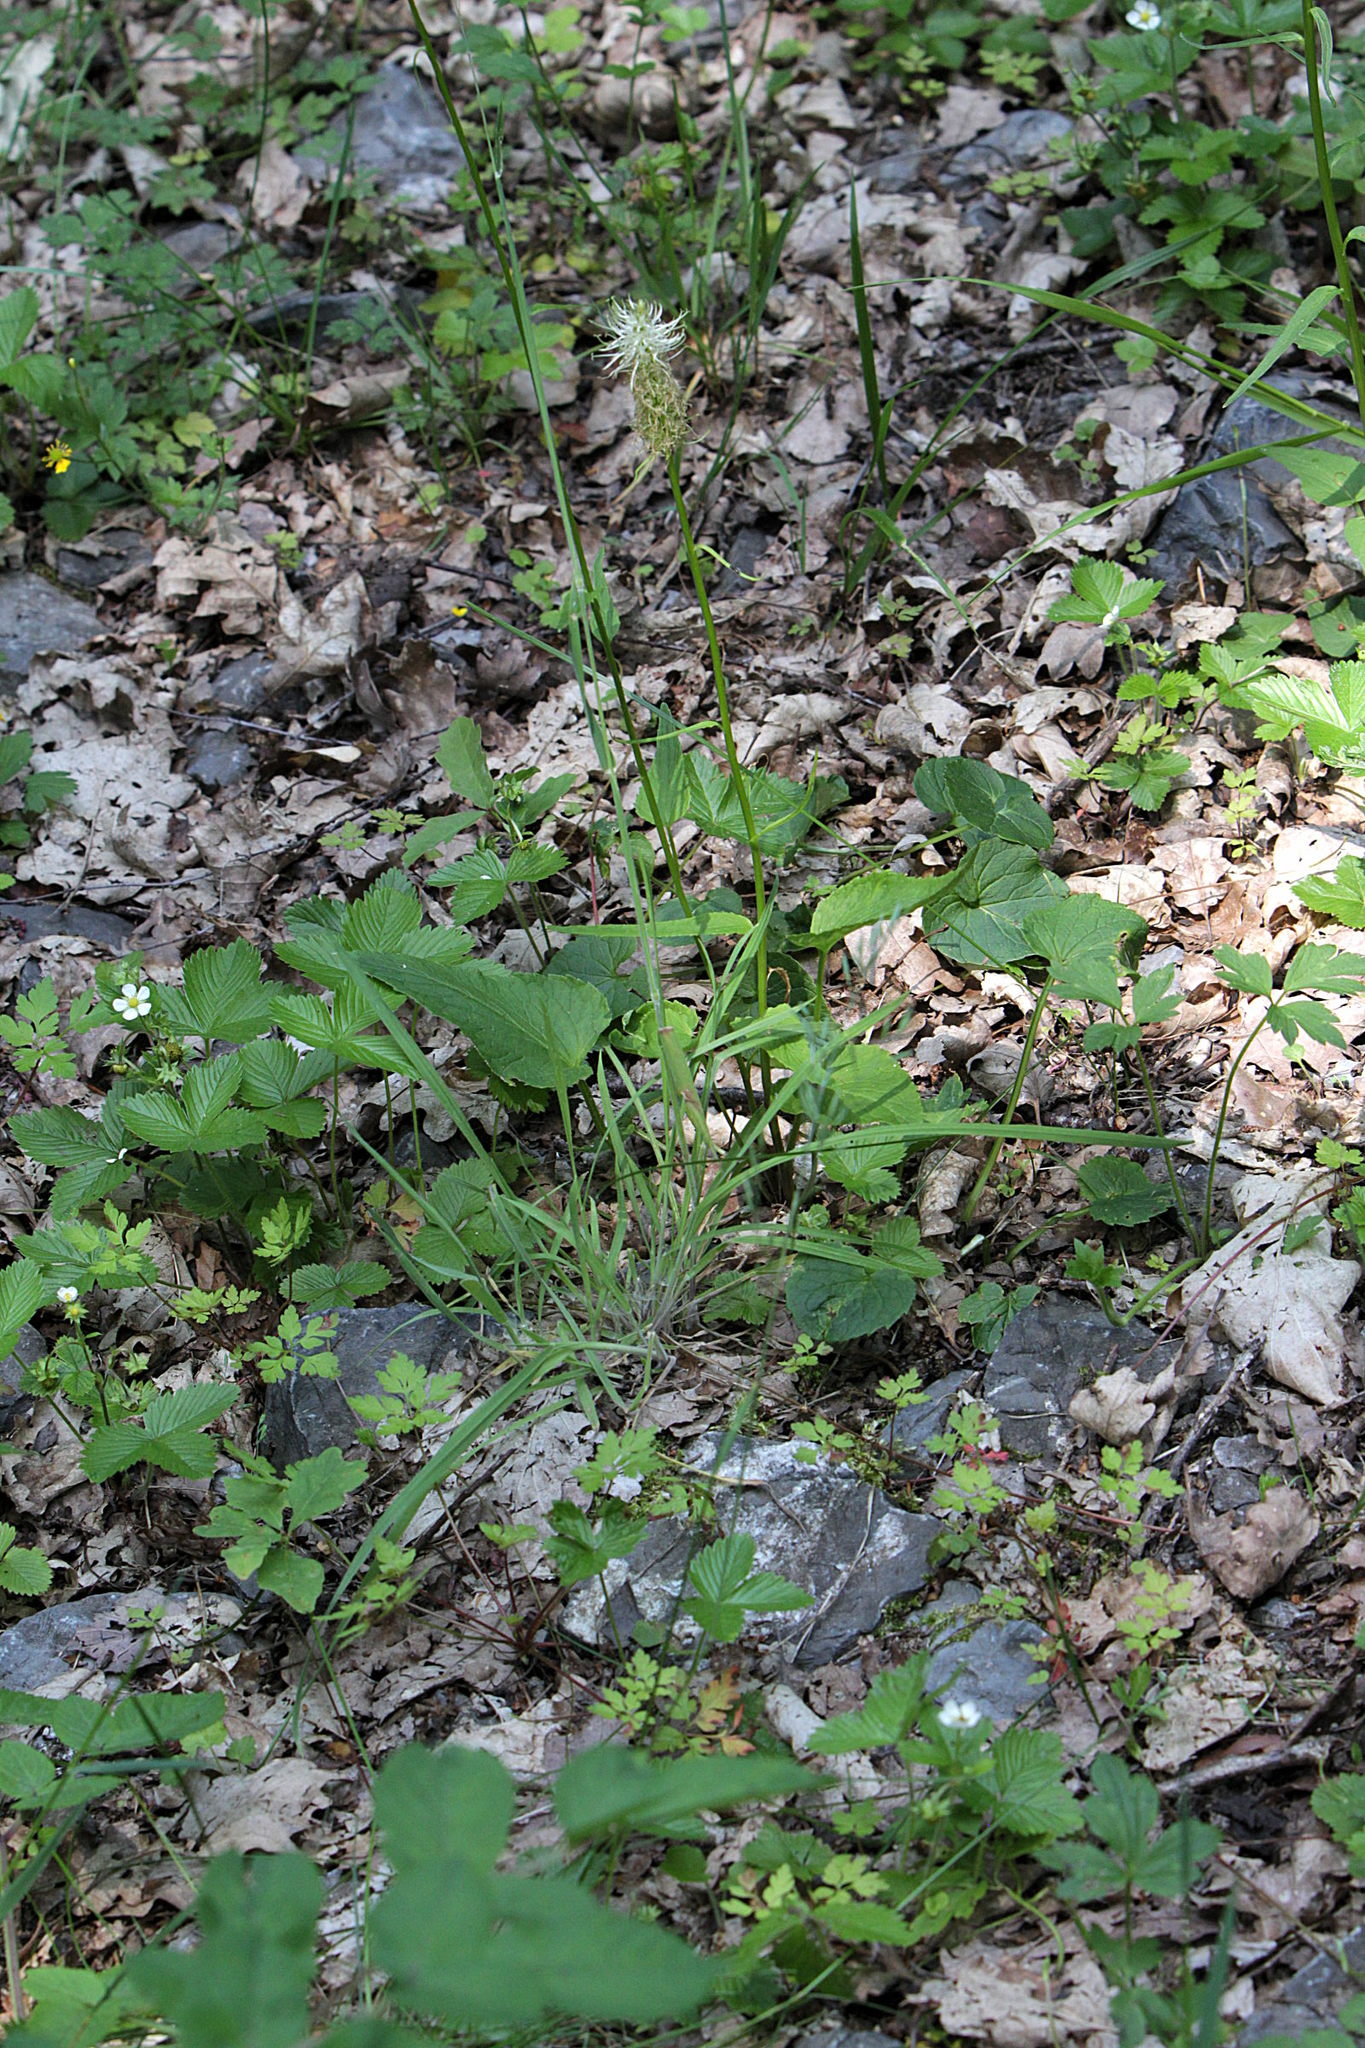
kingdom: Plantae
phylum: Tracheophyta
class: Magnoliopsida
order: Asterales
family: Campanulaceae
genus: Phyteuma
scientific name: Phyteuma spicatum
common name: Spiked rampion
